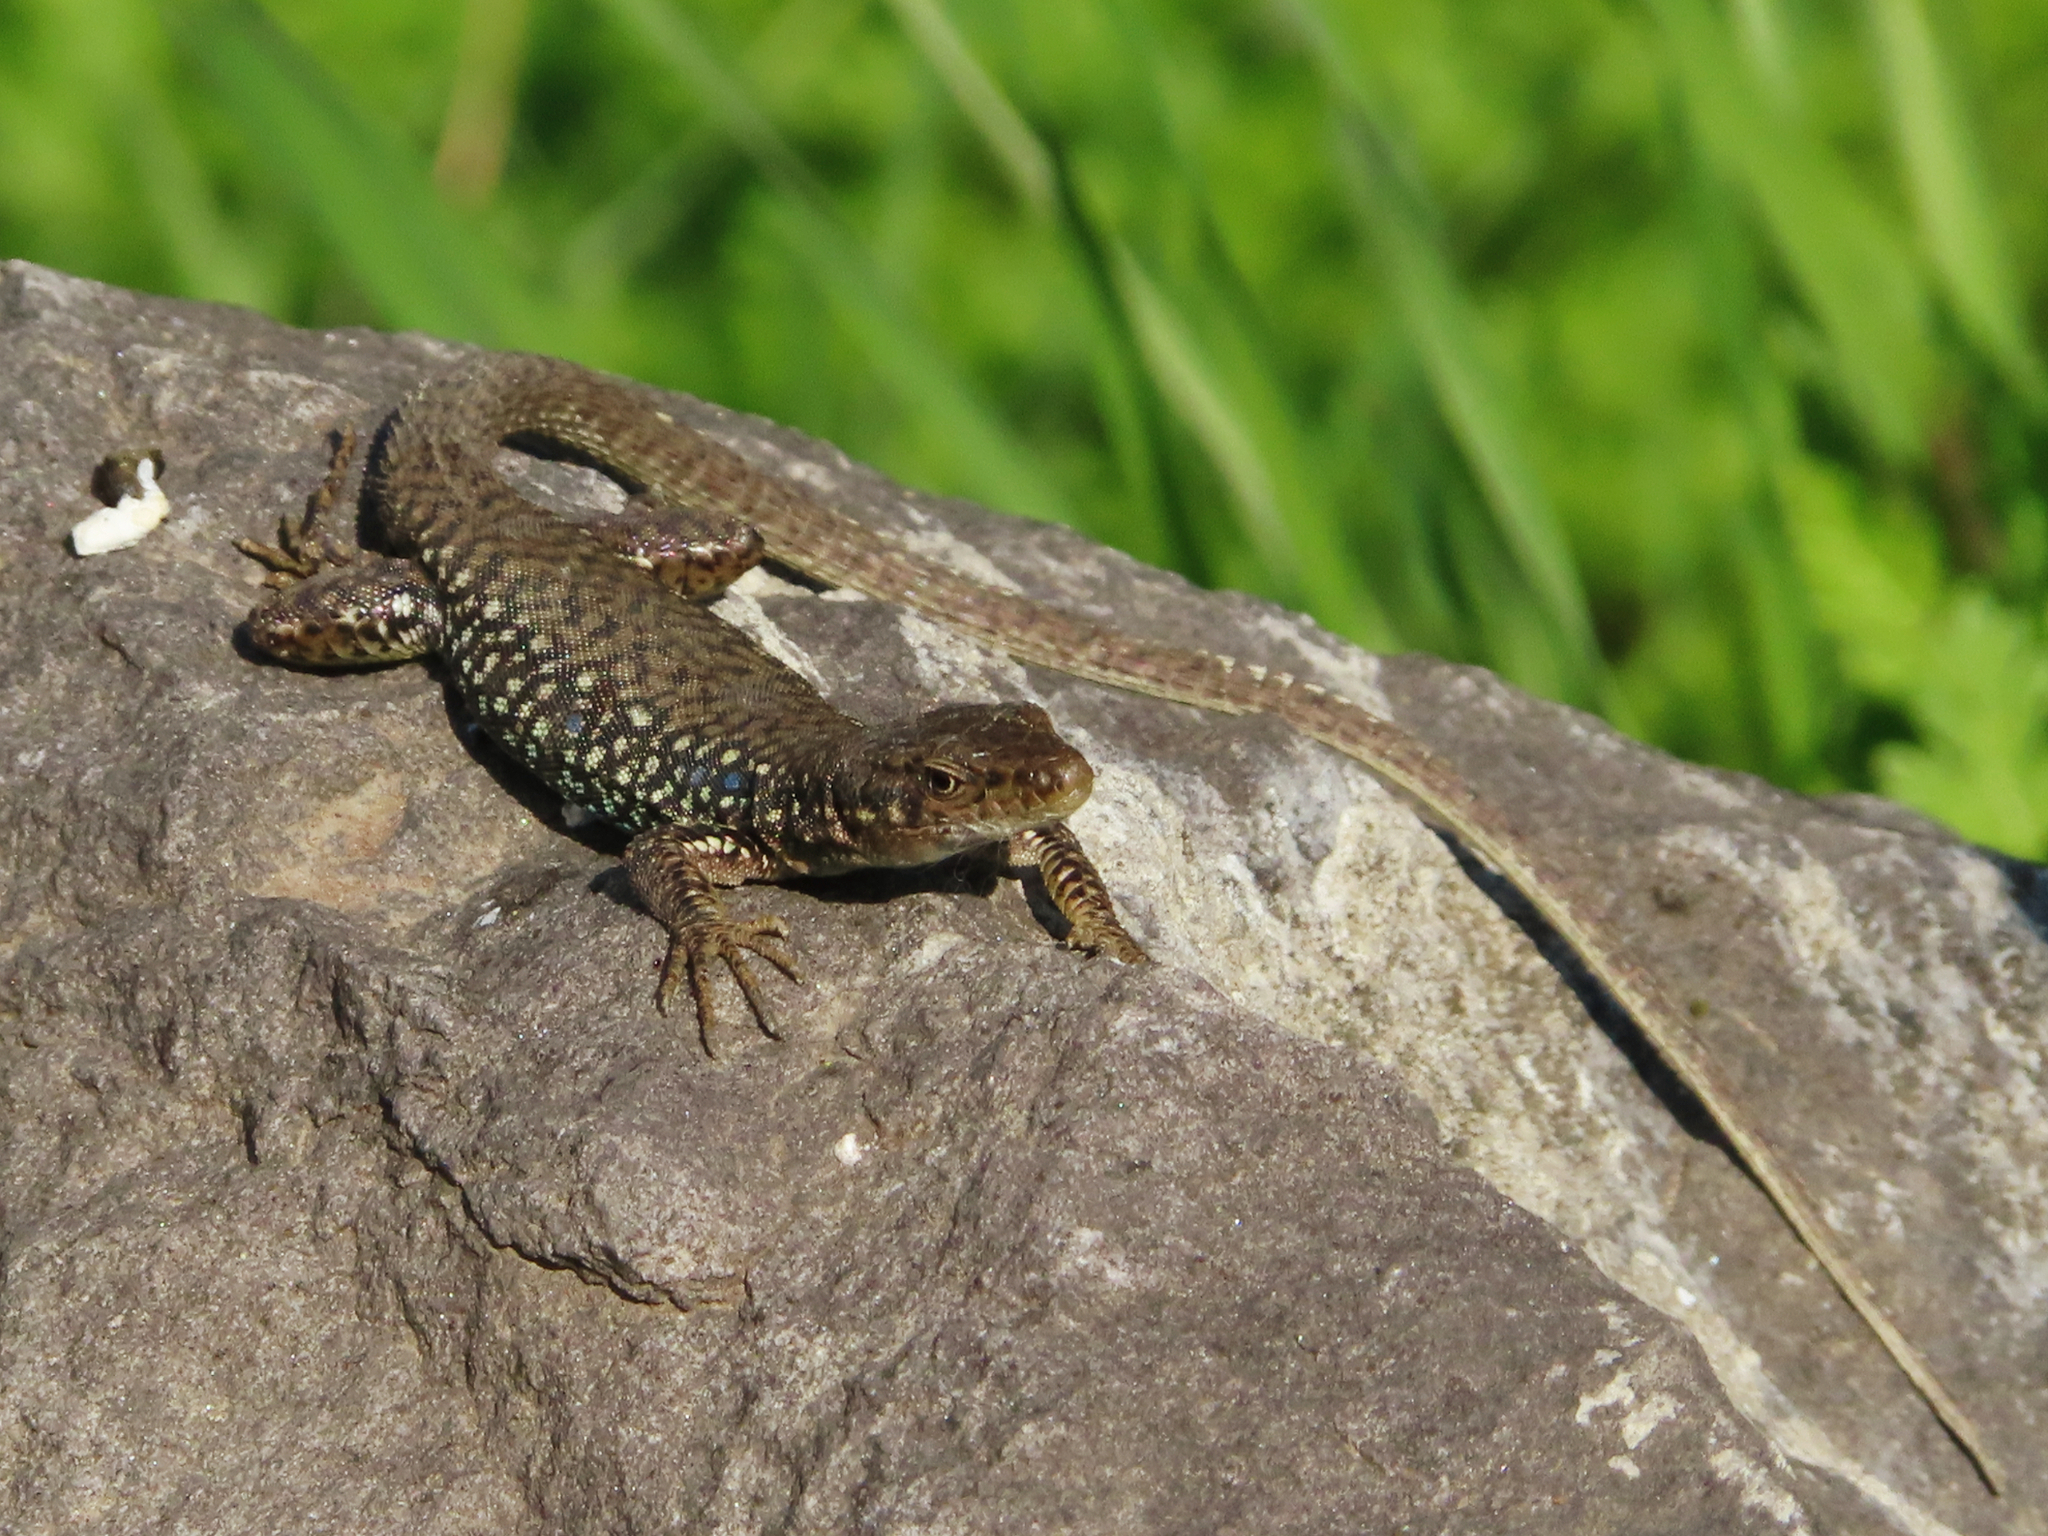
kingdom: Animalia
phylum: Chordata
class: Squamata
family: Lacertidae
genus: Darevskia
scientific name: Darevskia
